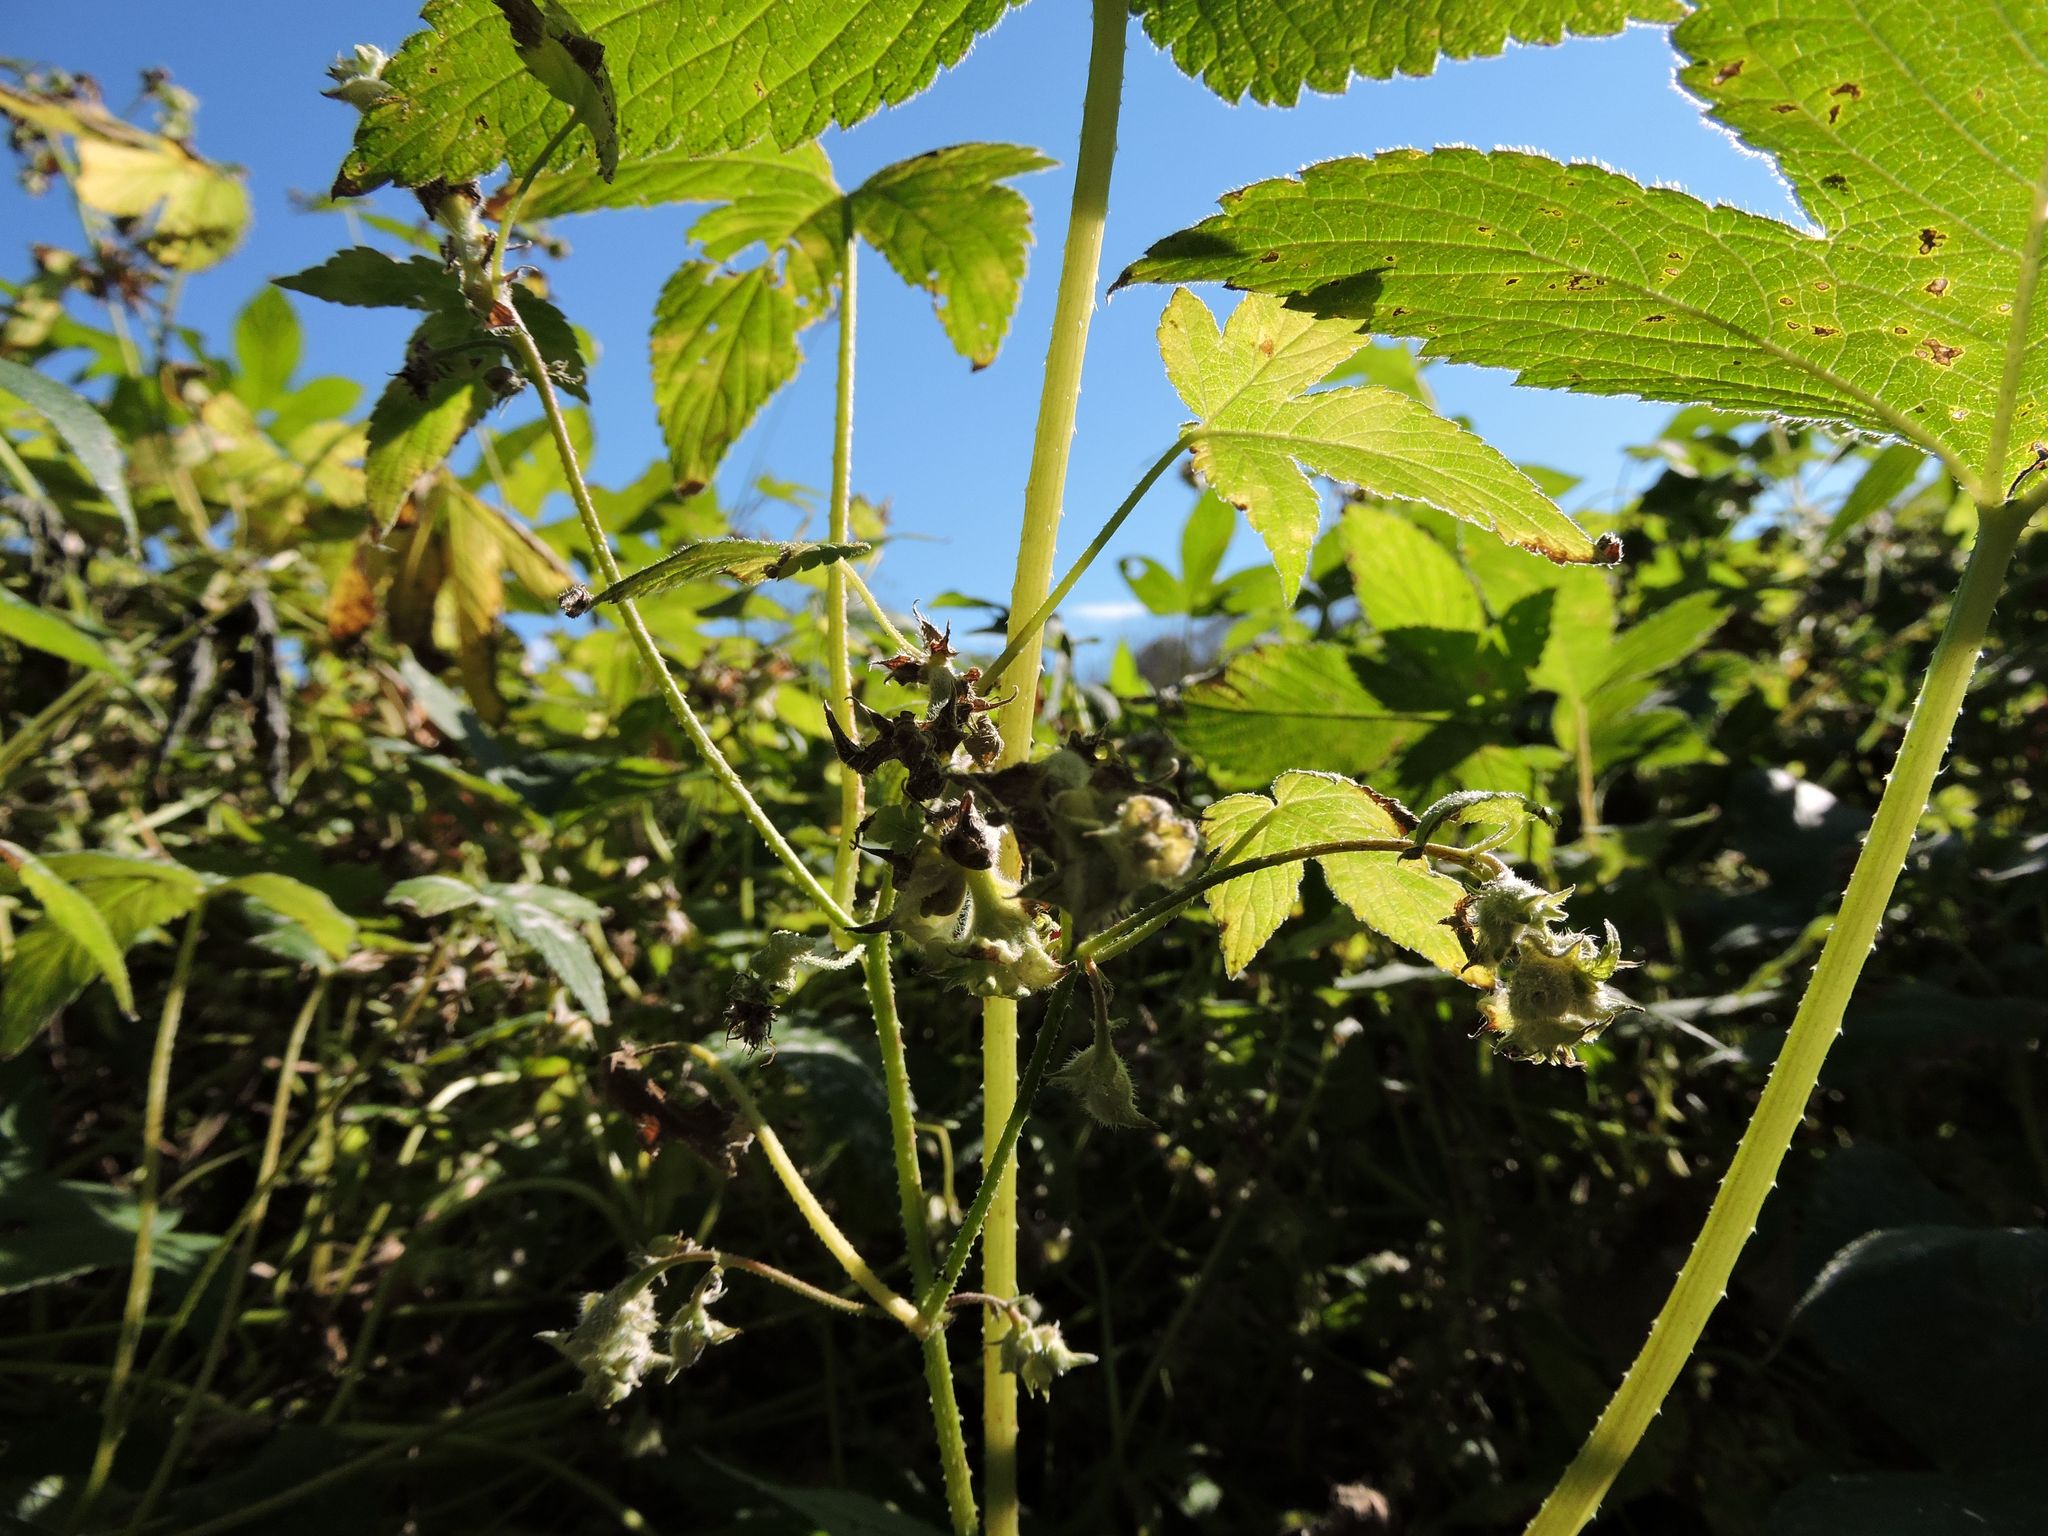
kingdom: Plantae
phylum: Tracheophyta
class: Magnoliopsida
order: Rosales
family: Cannabaceae
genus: Humulus
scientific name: Humulus scandens
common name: Japanese hop
